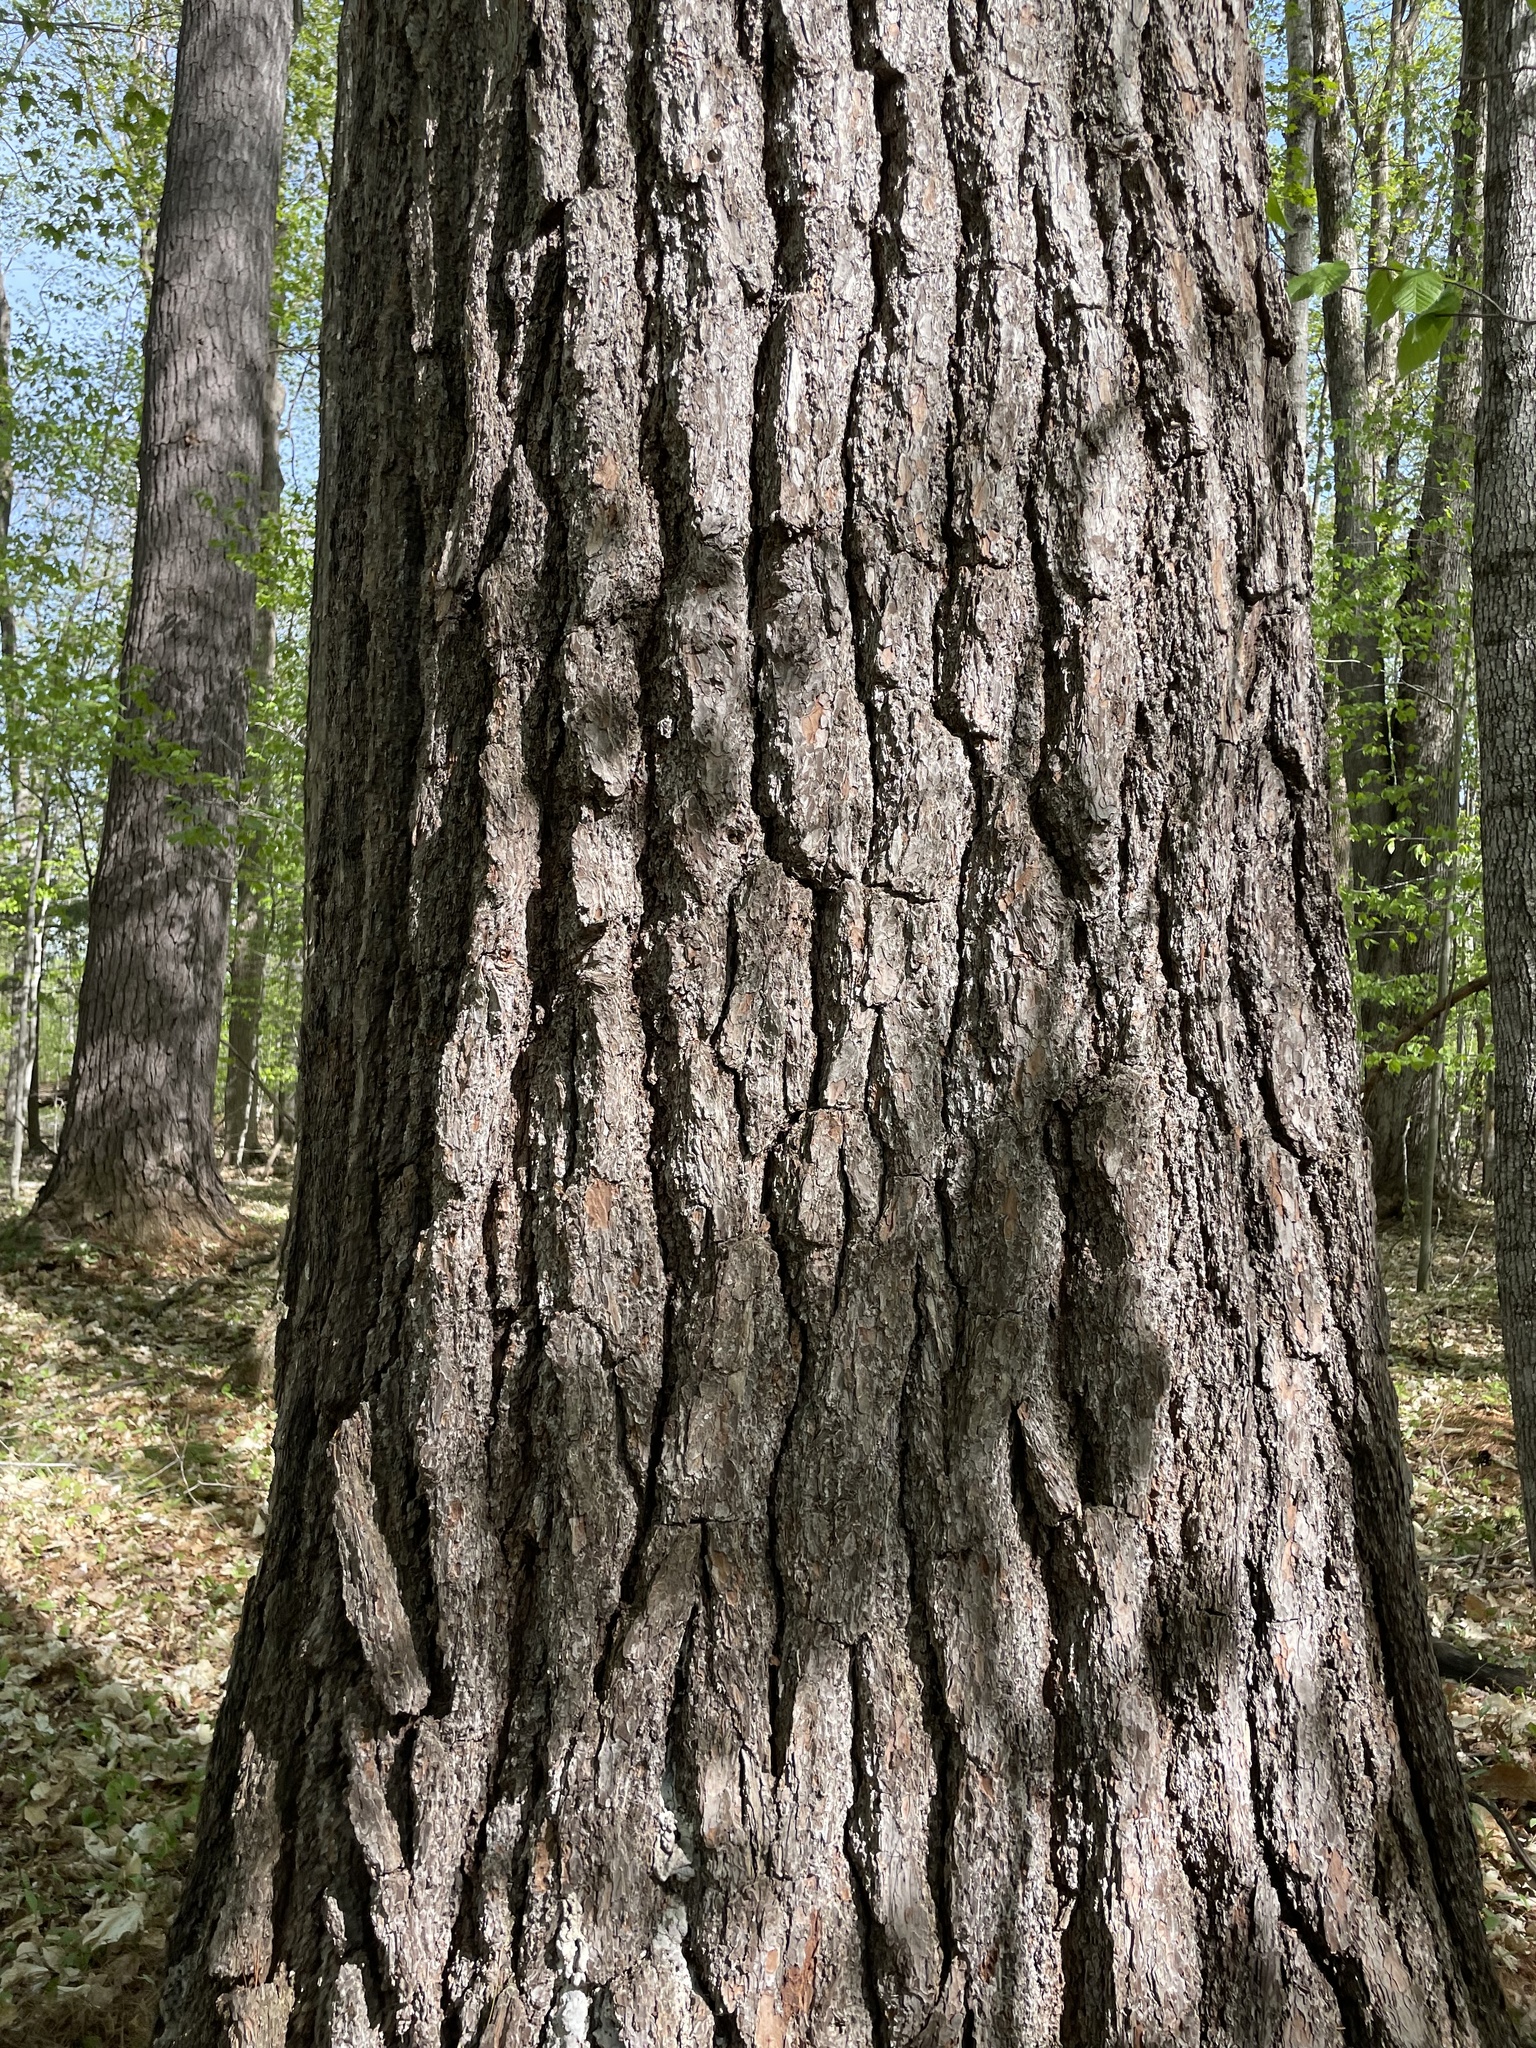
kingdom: Plantae
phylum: Tracheophyta
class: Pinopsida
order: Pinales
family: Pinaceae
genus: Pinus
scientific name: Pinus strobus
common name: Weymouth pine
